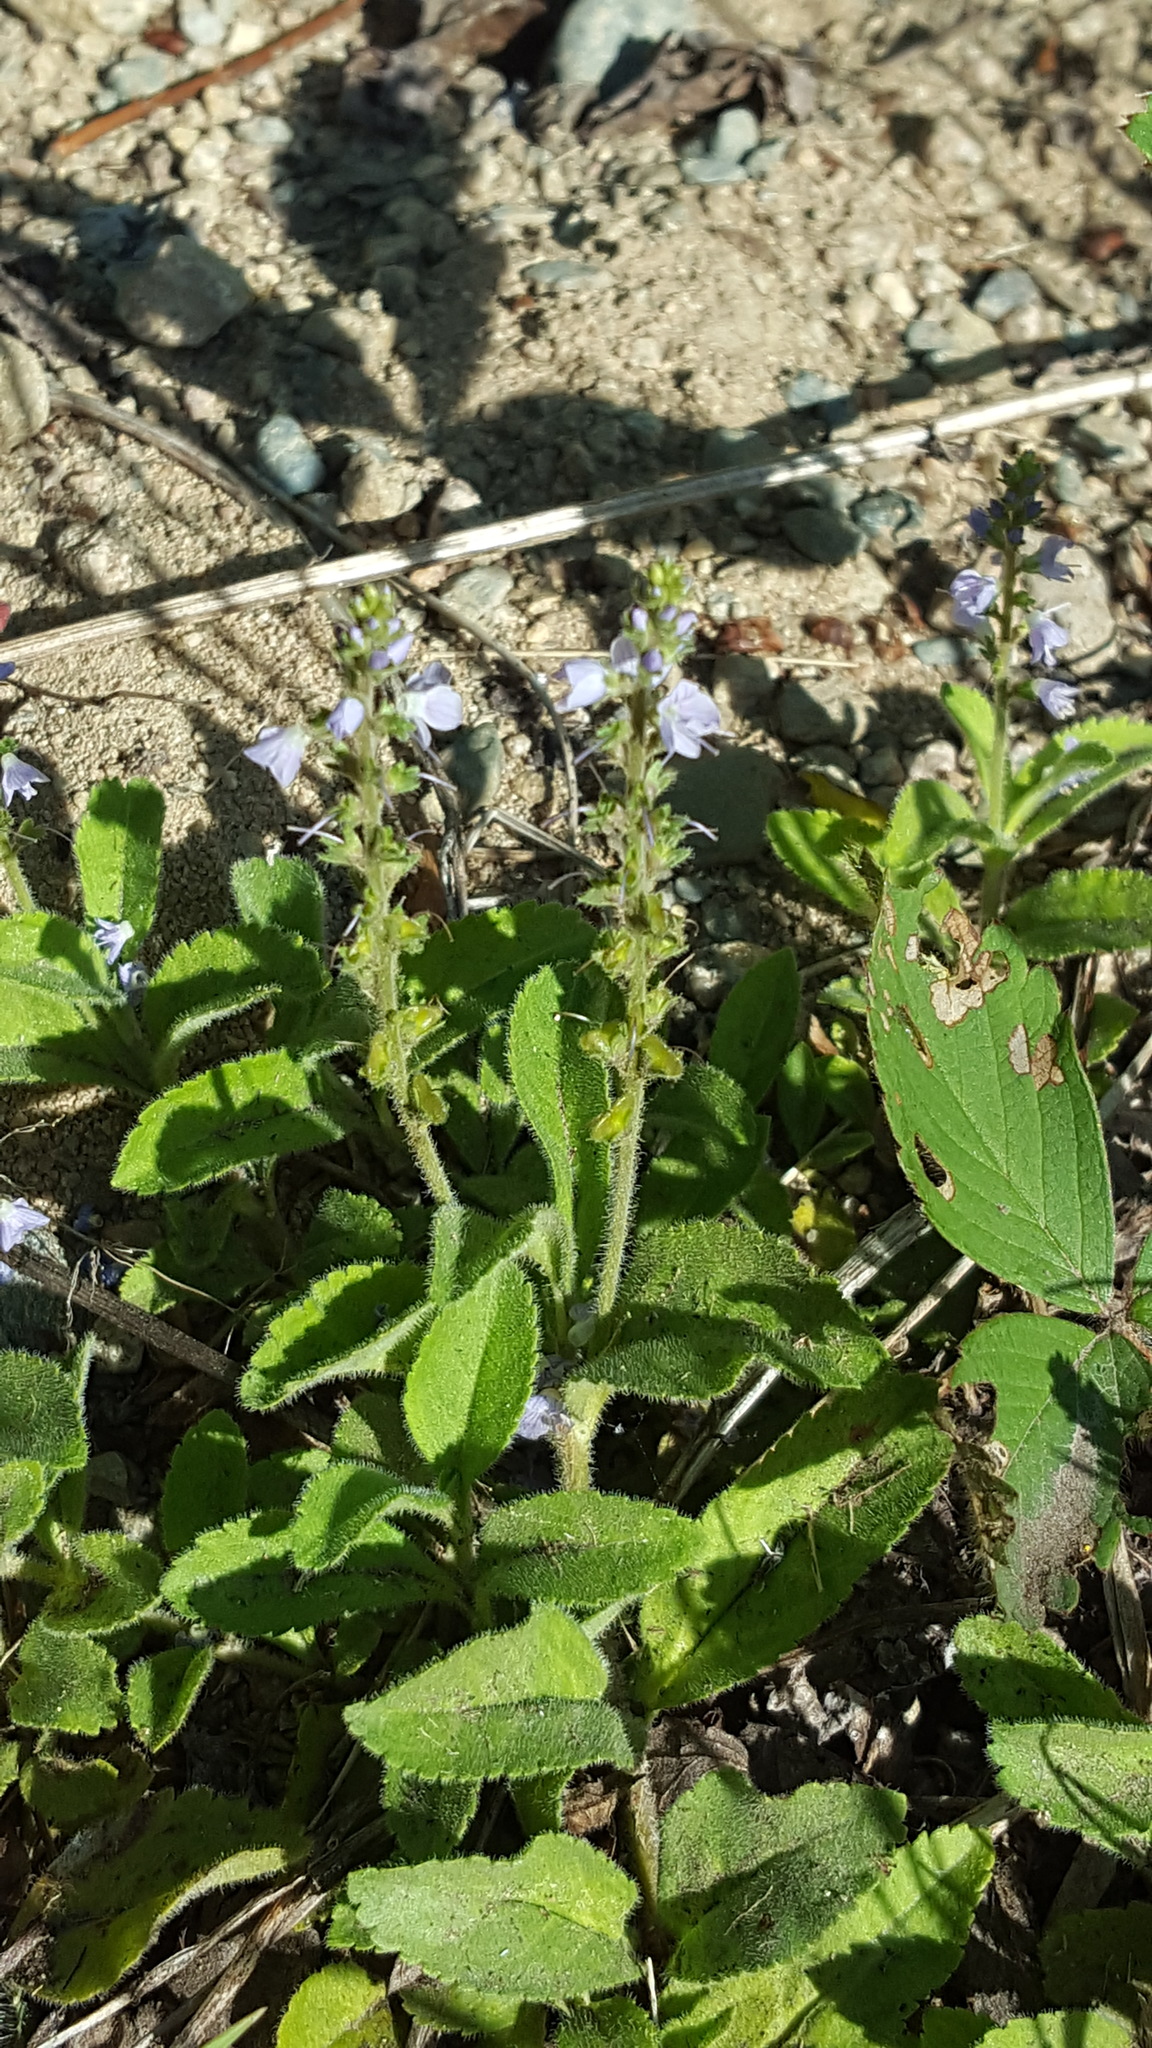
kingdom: Plantae
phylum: Tracheophyta
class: Magnoliopsida
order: Lamiales
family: Plantaginaceae
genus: Veronica
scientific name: Veronica officinalis
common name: Common speedwell
